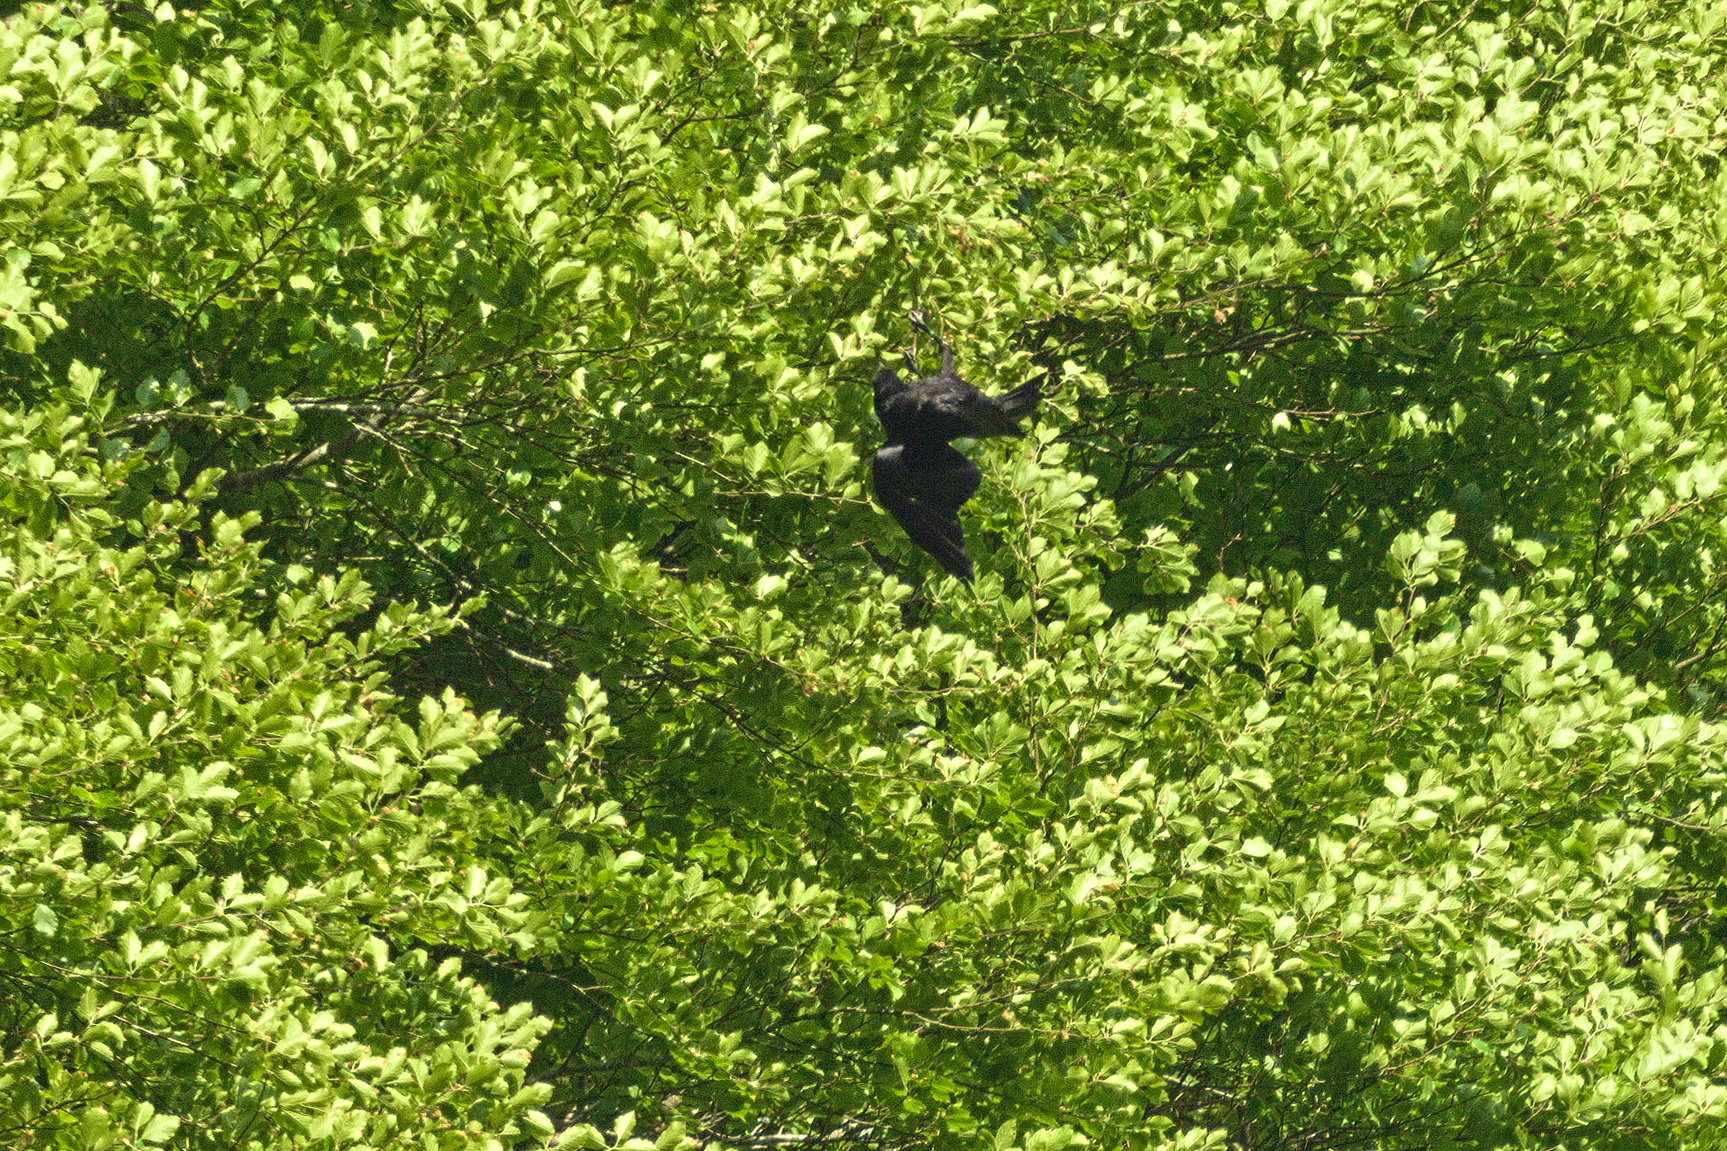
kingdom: Animalia
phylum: Chordata
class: Aves
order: Passeriformes
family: Corvidae
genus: Corvus
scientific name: Corvus corax
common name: Common raven
